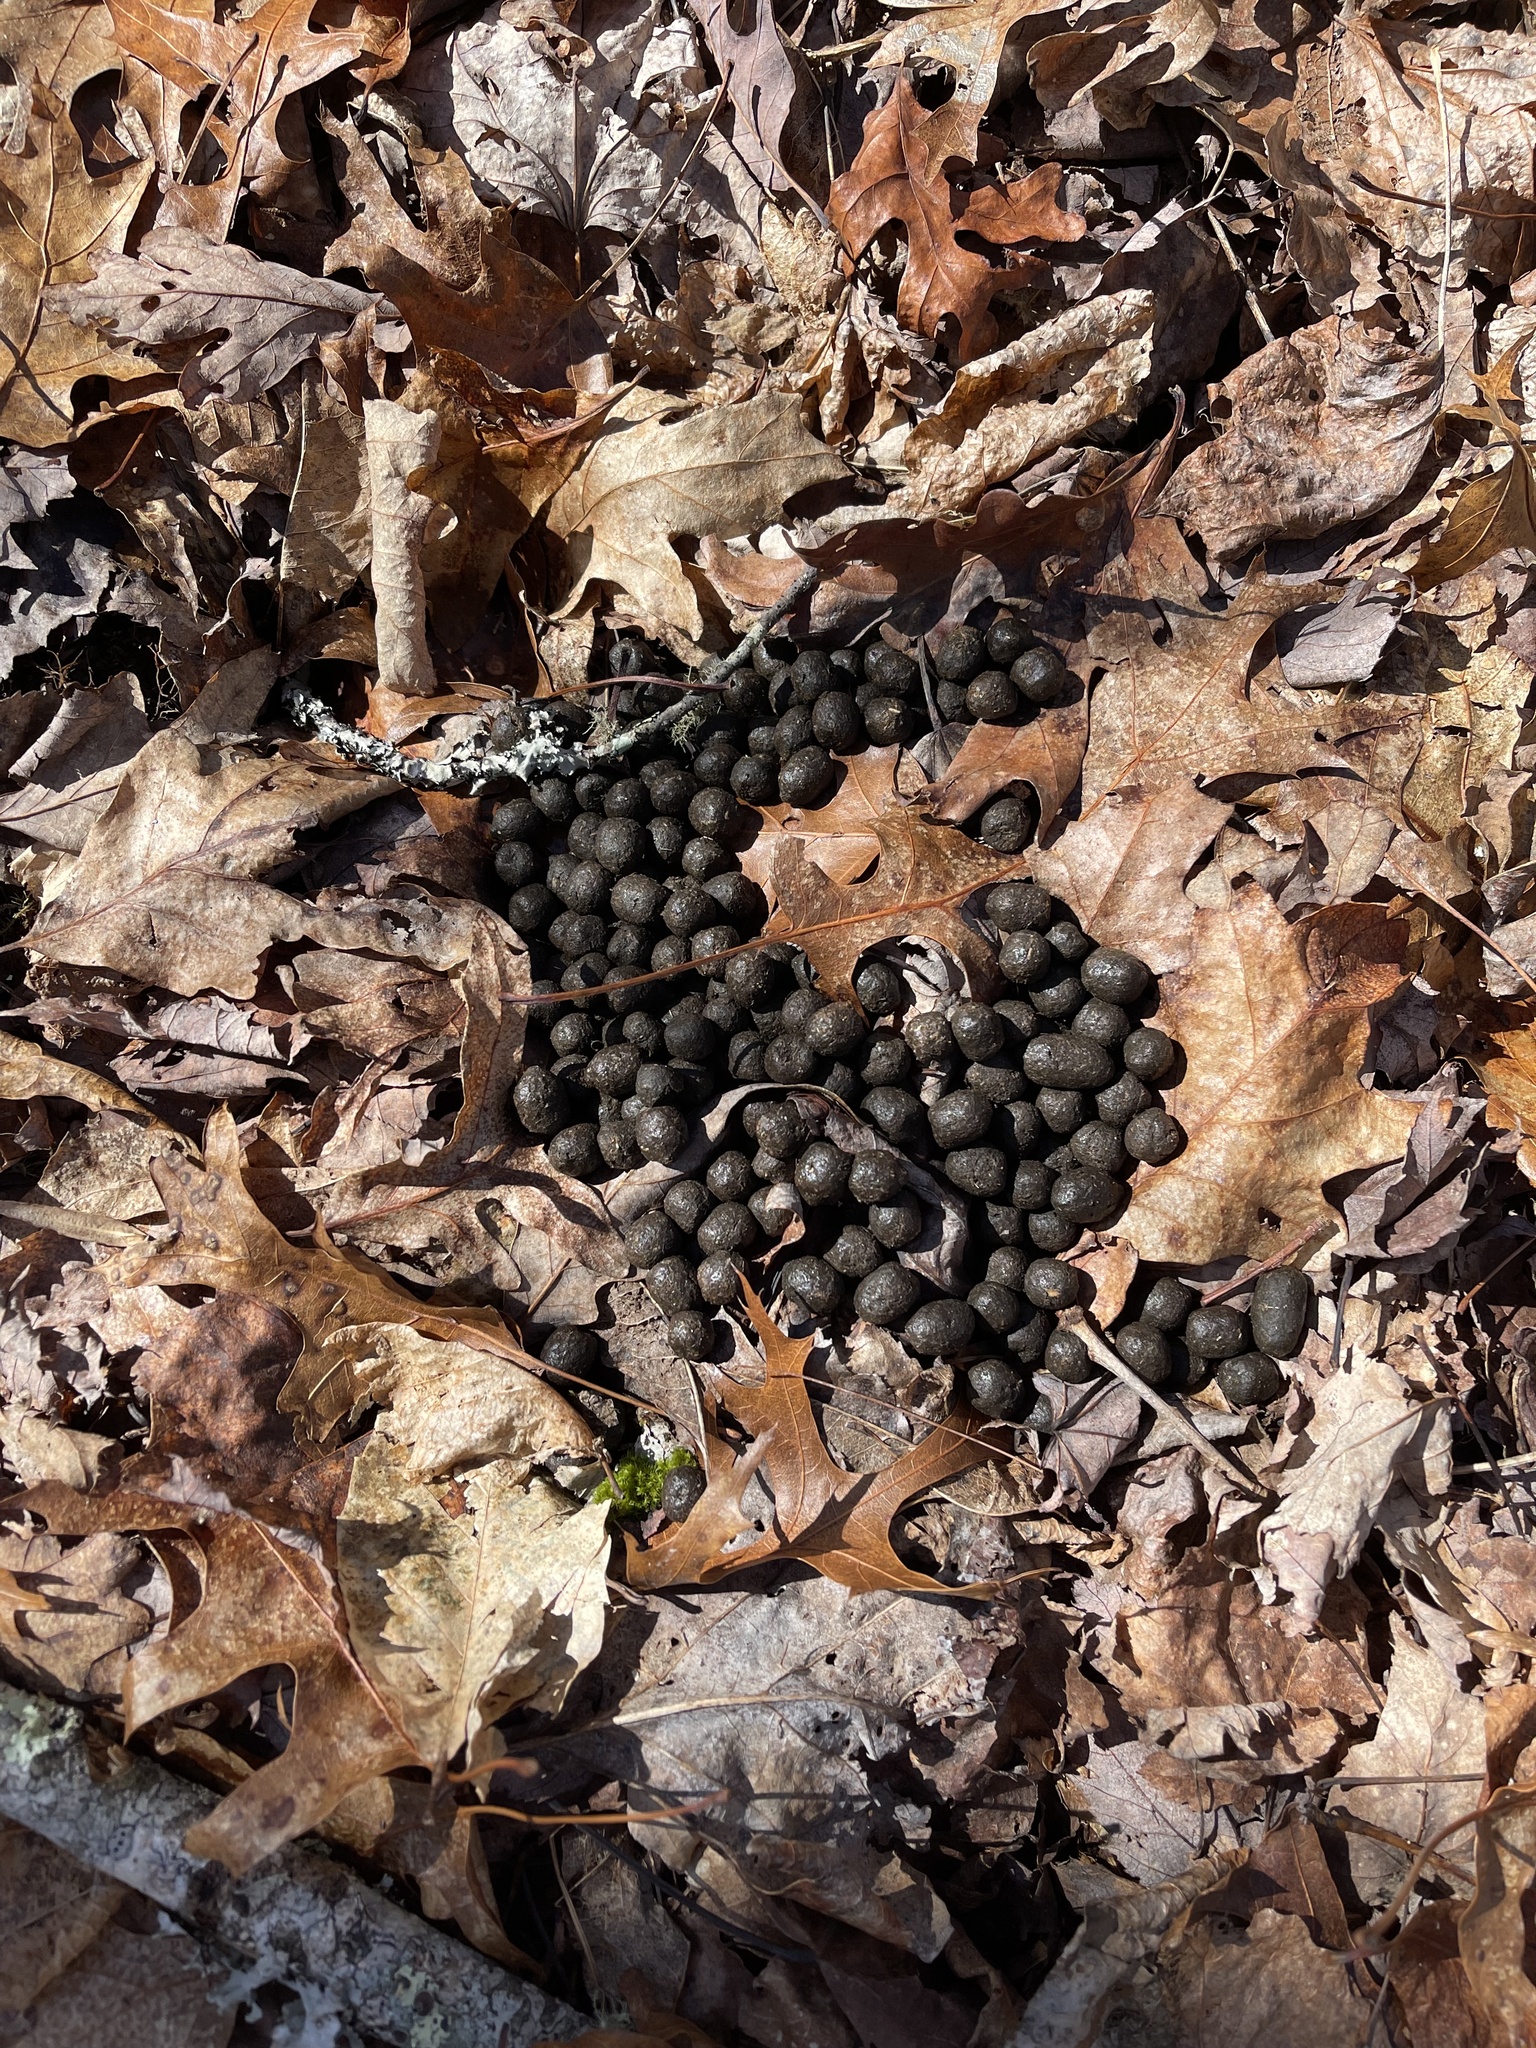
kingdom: Animalia
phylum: Chordata
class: Mammalia
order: Artiodactyla
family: Cervidae
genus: Odocoileus
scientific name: Odocoileus virginianus
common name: White-tailed deer
